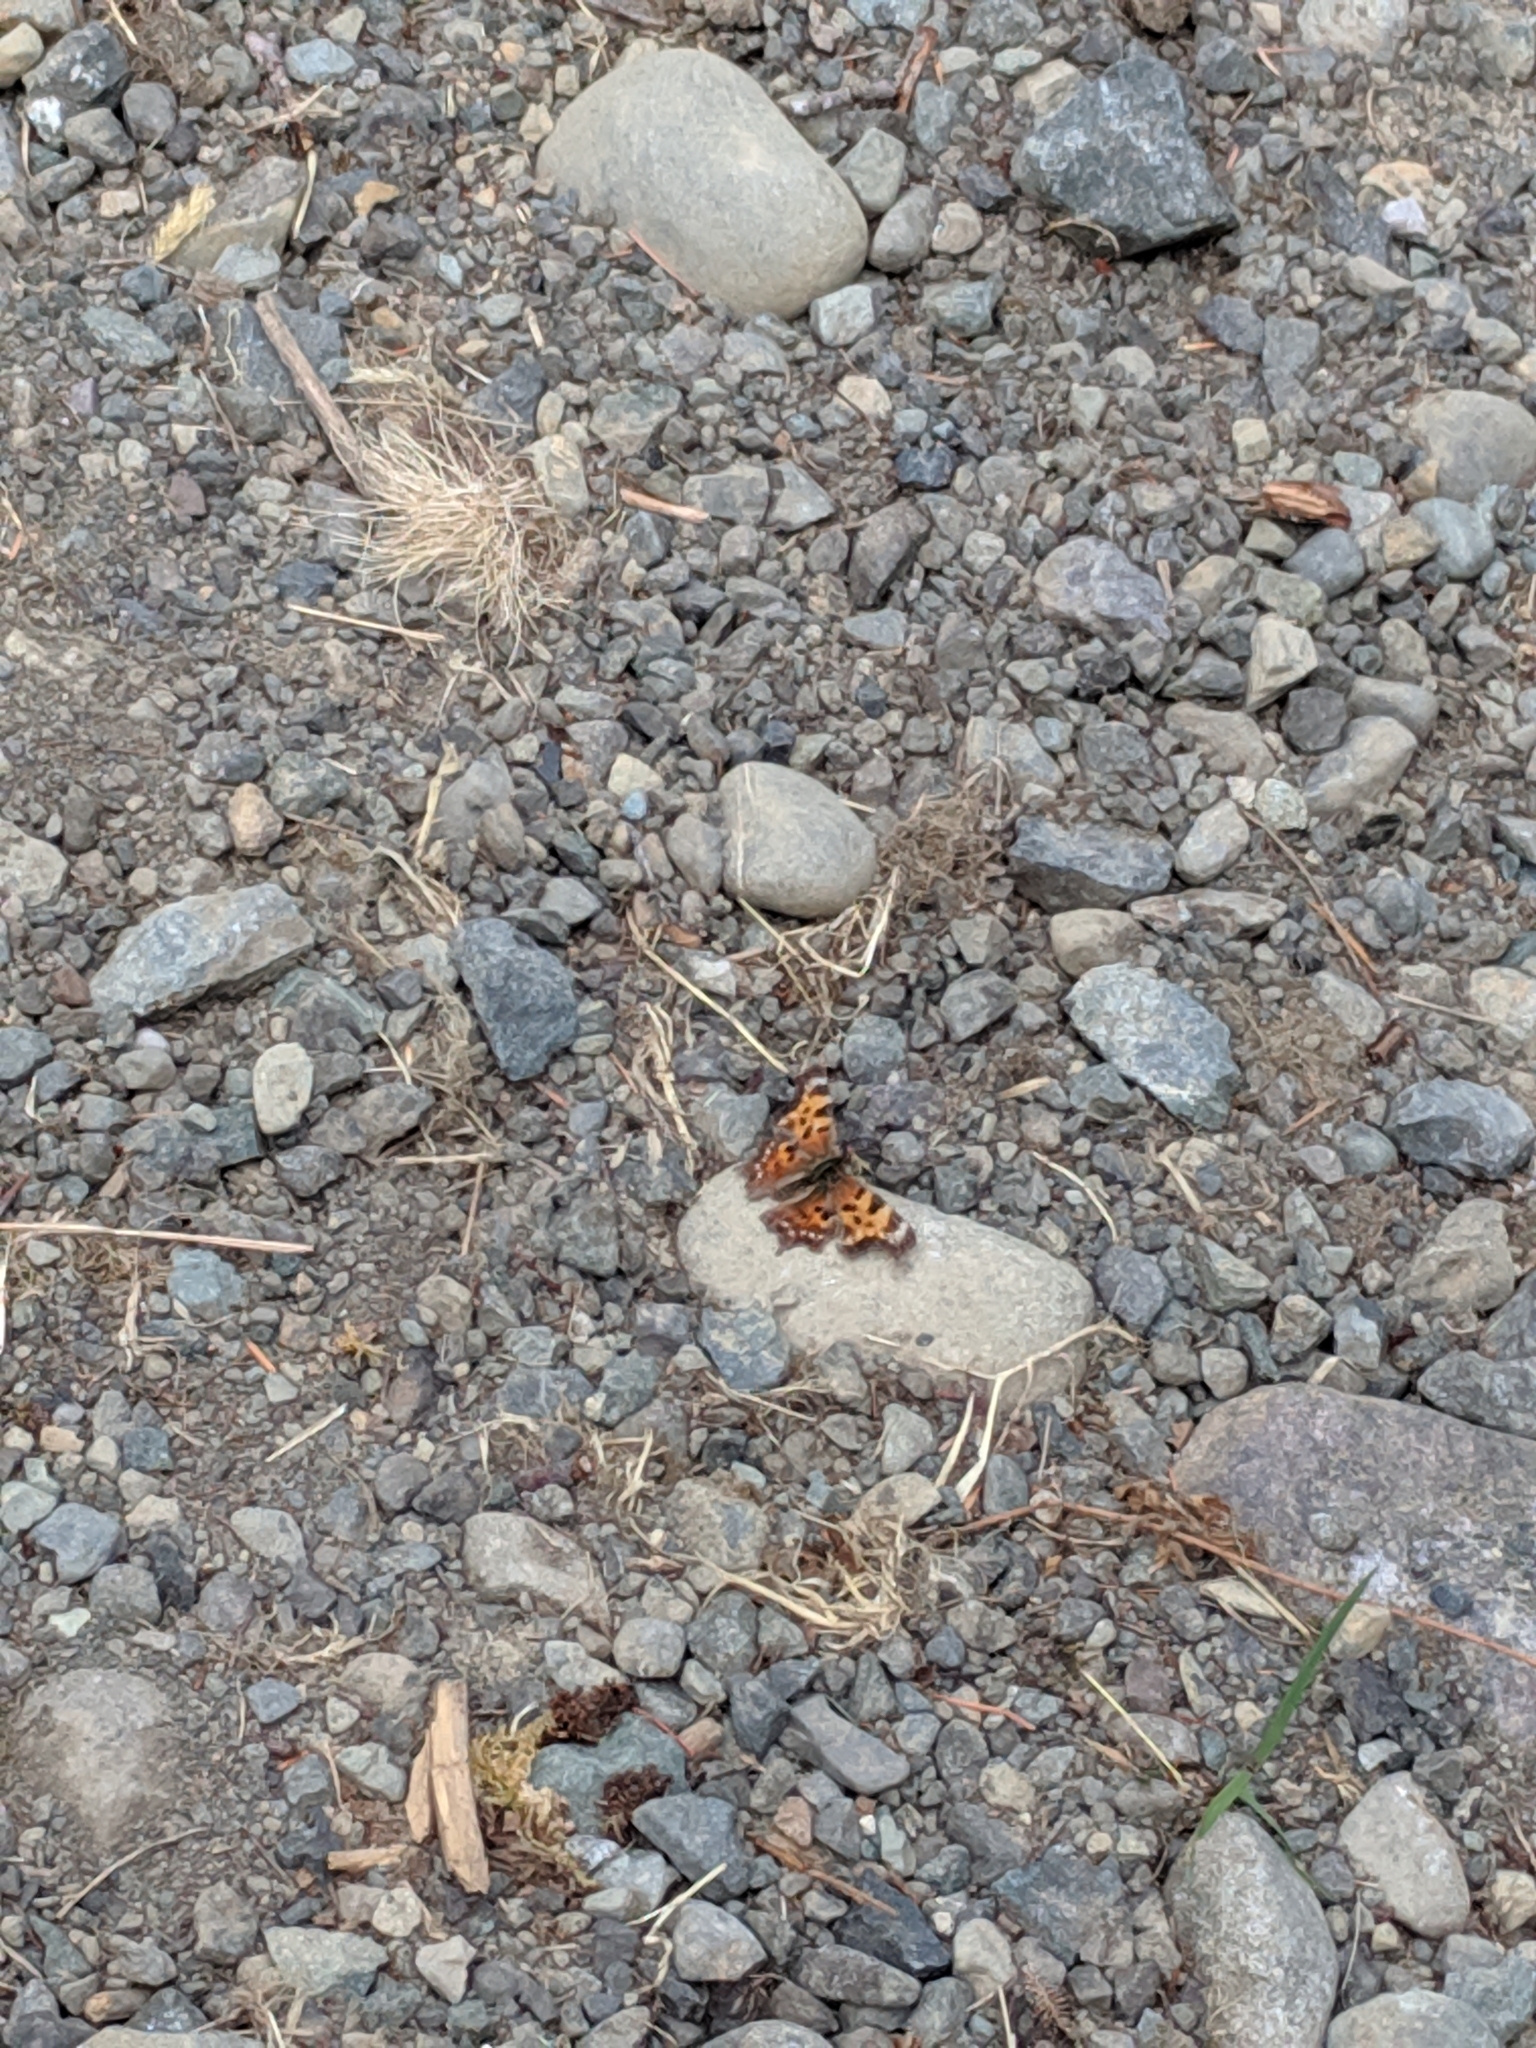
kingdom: Animalia
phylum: Arthropoda
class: Insecta
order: Lepidoptera
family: Nymphalidae
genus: Polygonia
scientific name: Polygonia faunus
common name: Green comma
